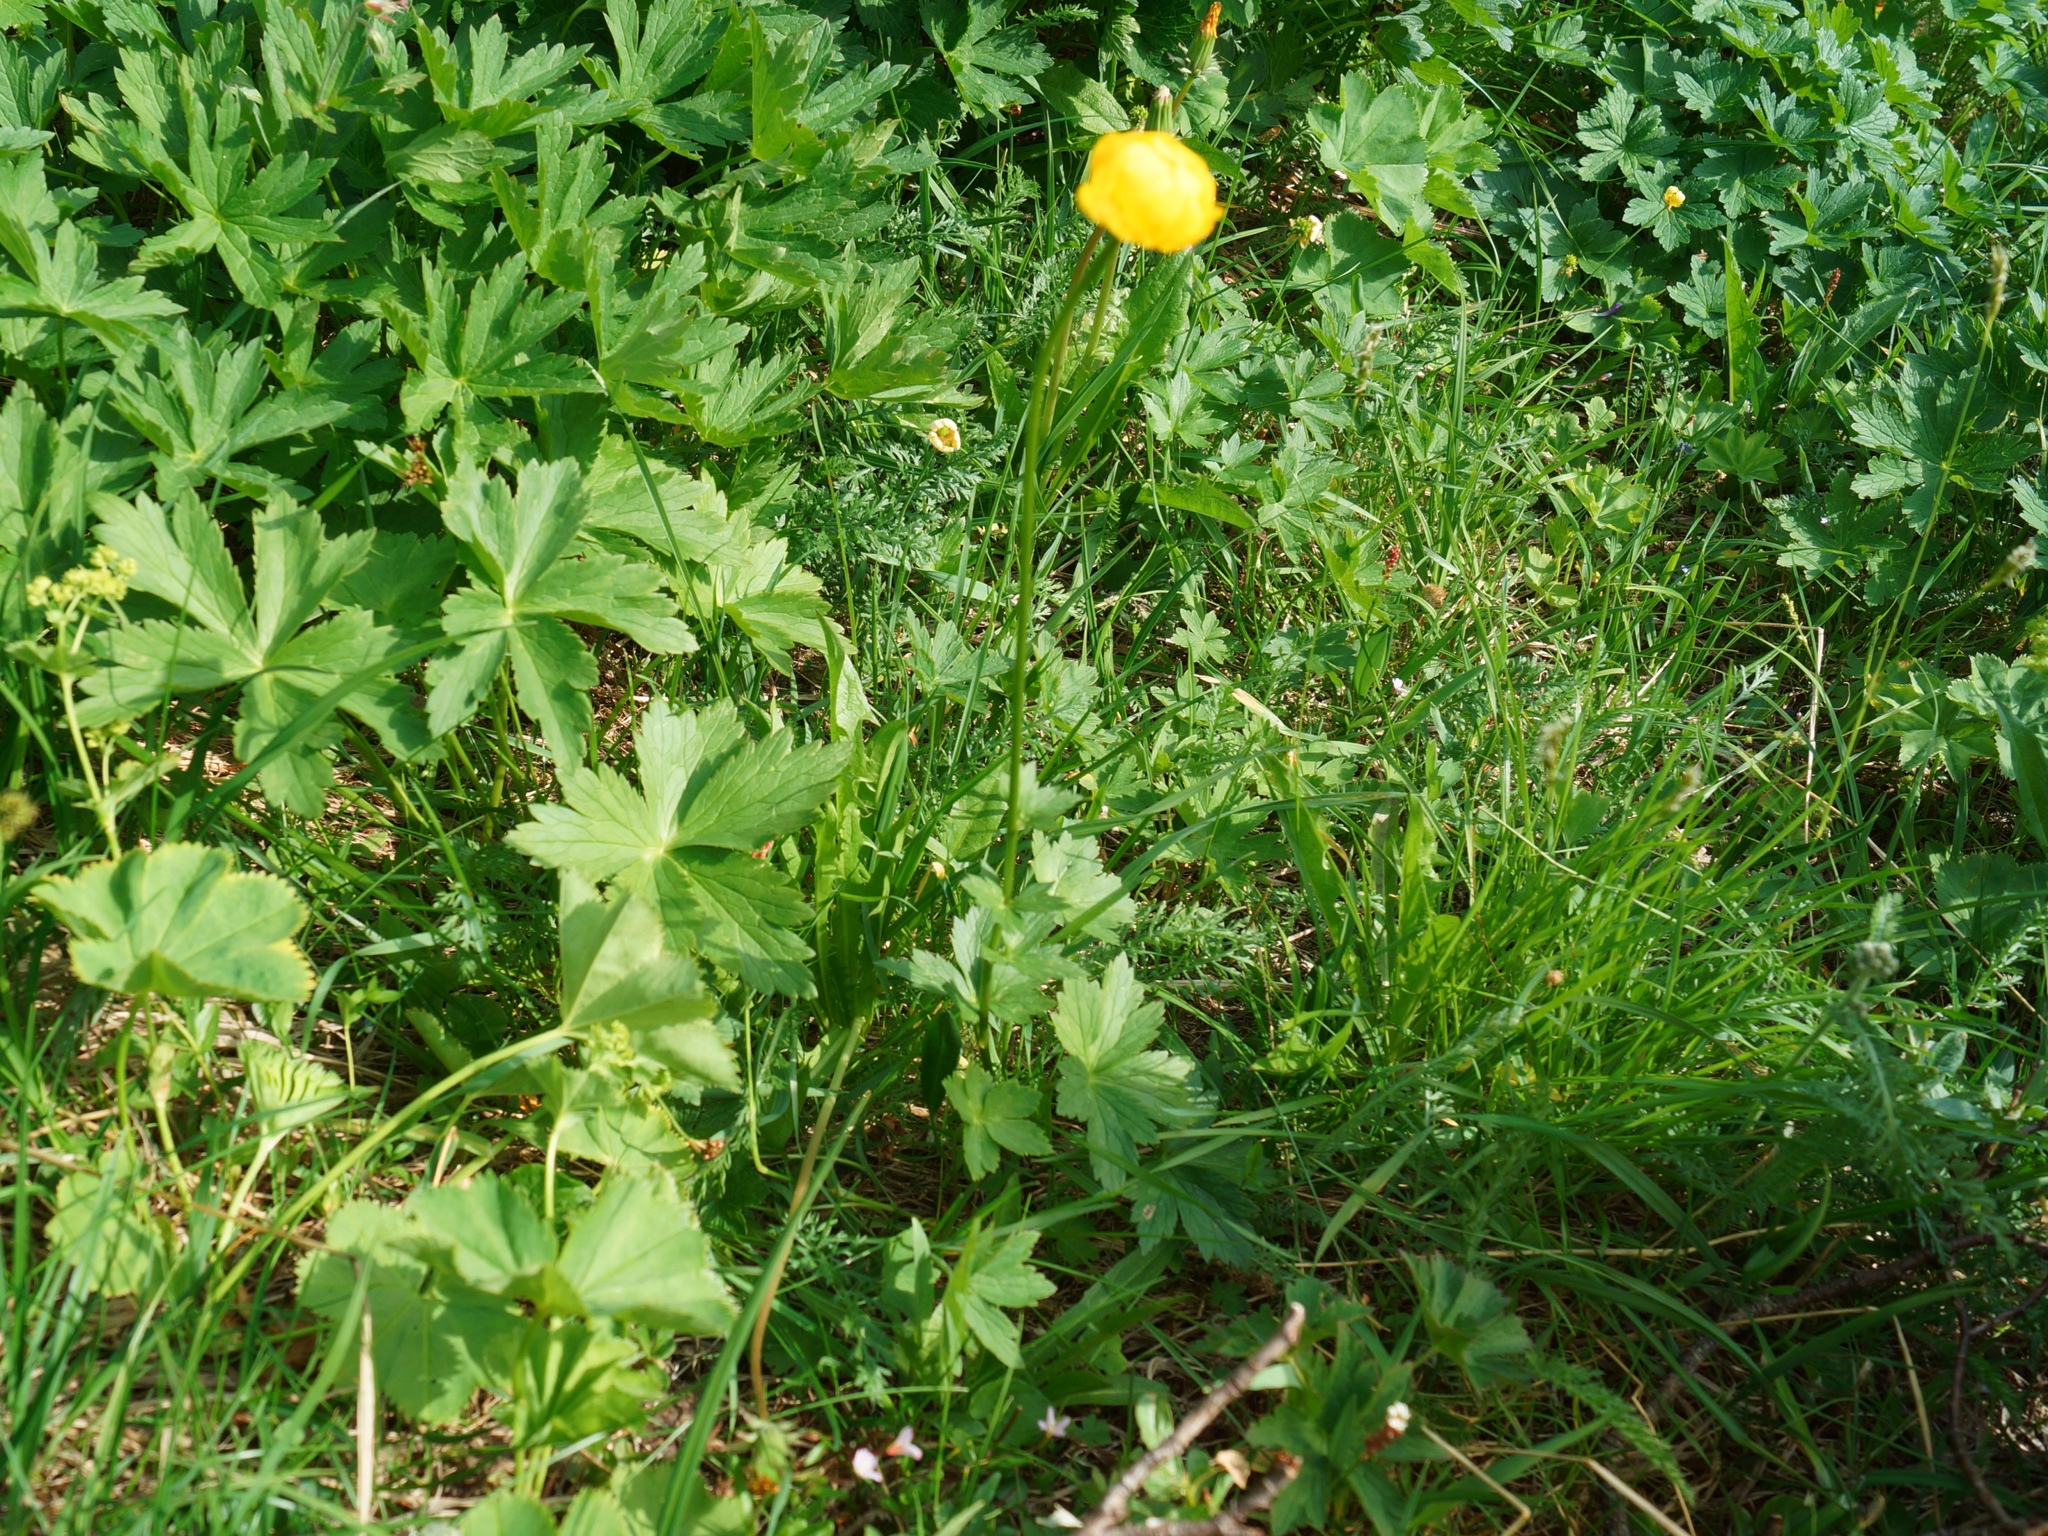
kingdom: Plantae
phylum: Tracheophyta
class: Magnoliopsida
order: Ranunculales
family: Ranunculaceae
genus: Trollius
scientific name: Trollius europaeus
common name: European globeflower
